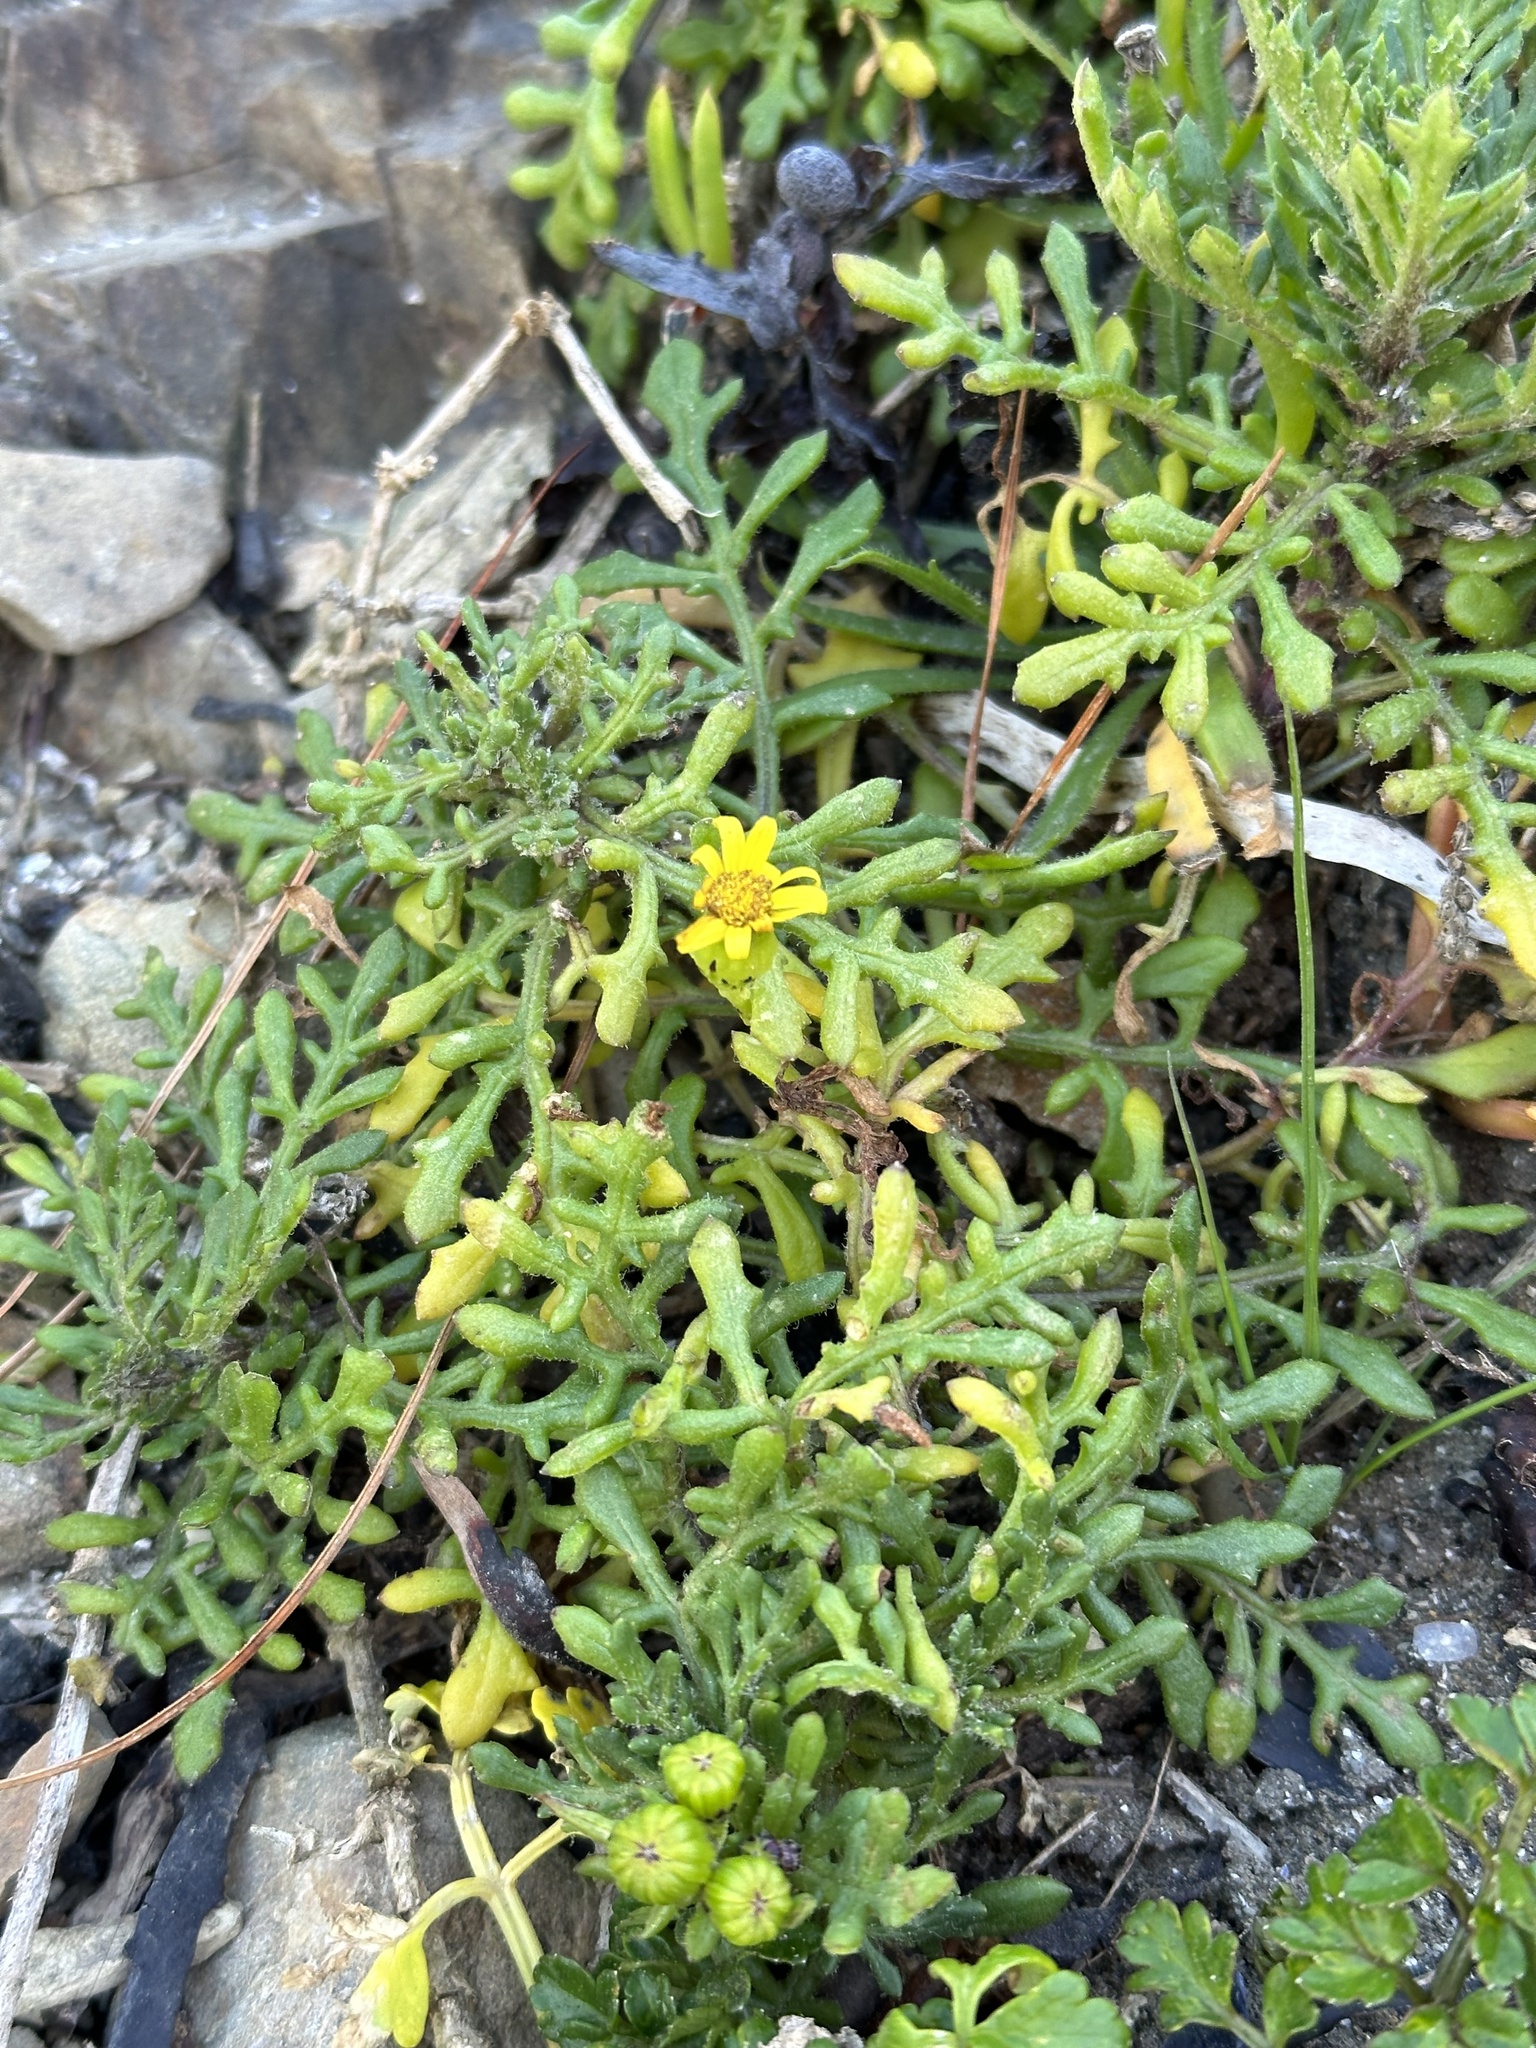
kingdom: Plantae
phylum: Tracheophyta
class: Magnoliopsida
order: Asterales
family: Asteraceae
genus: Senecio
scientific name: Senecio lautus
